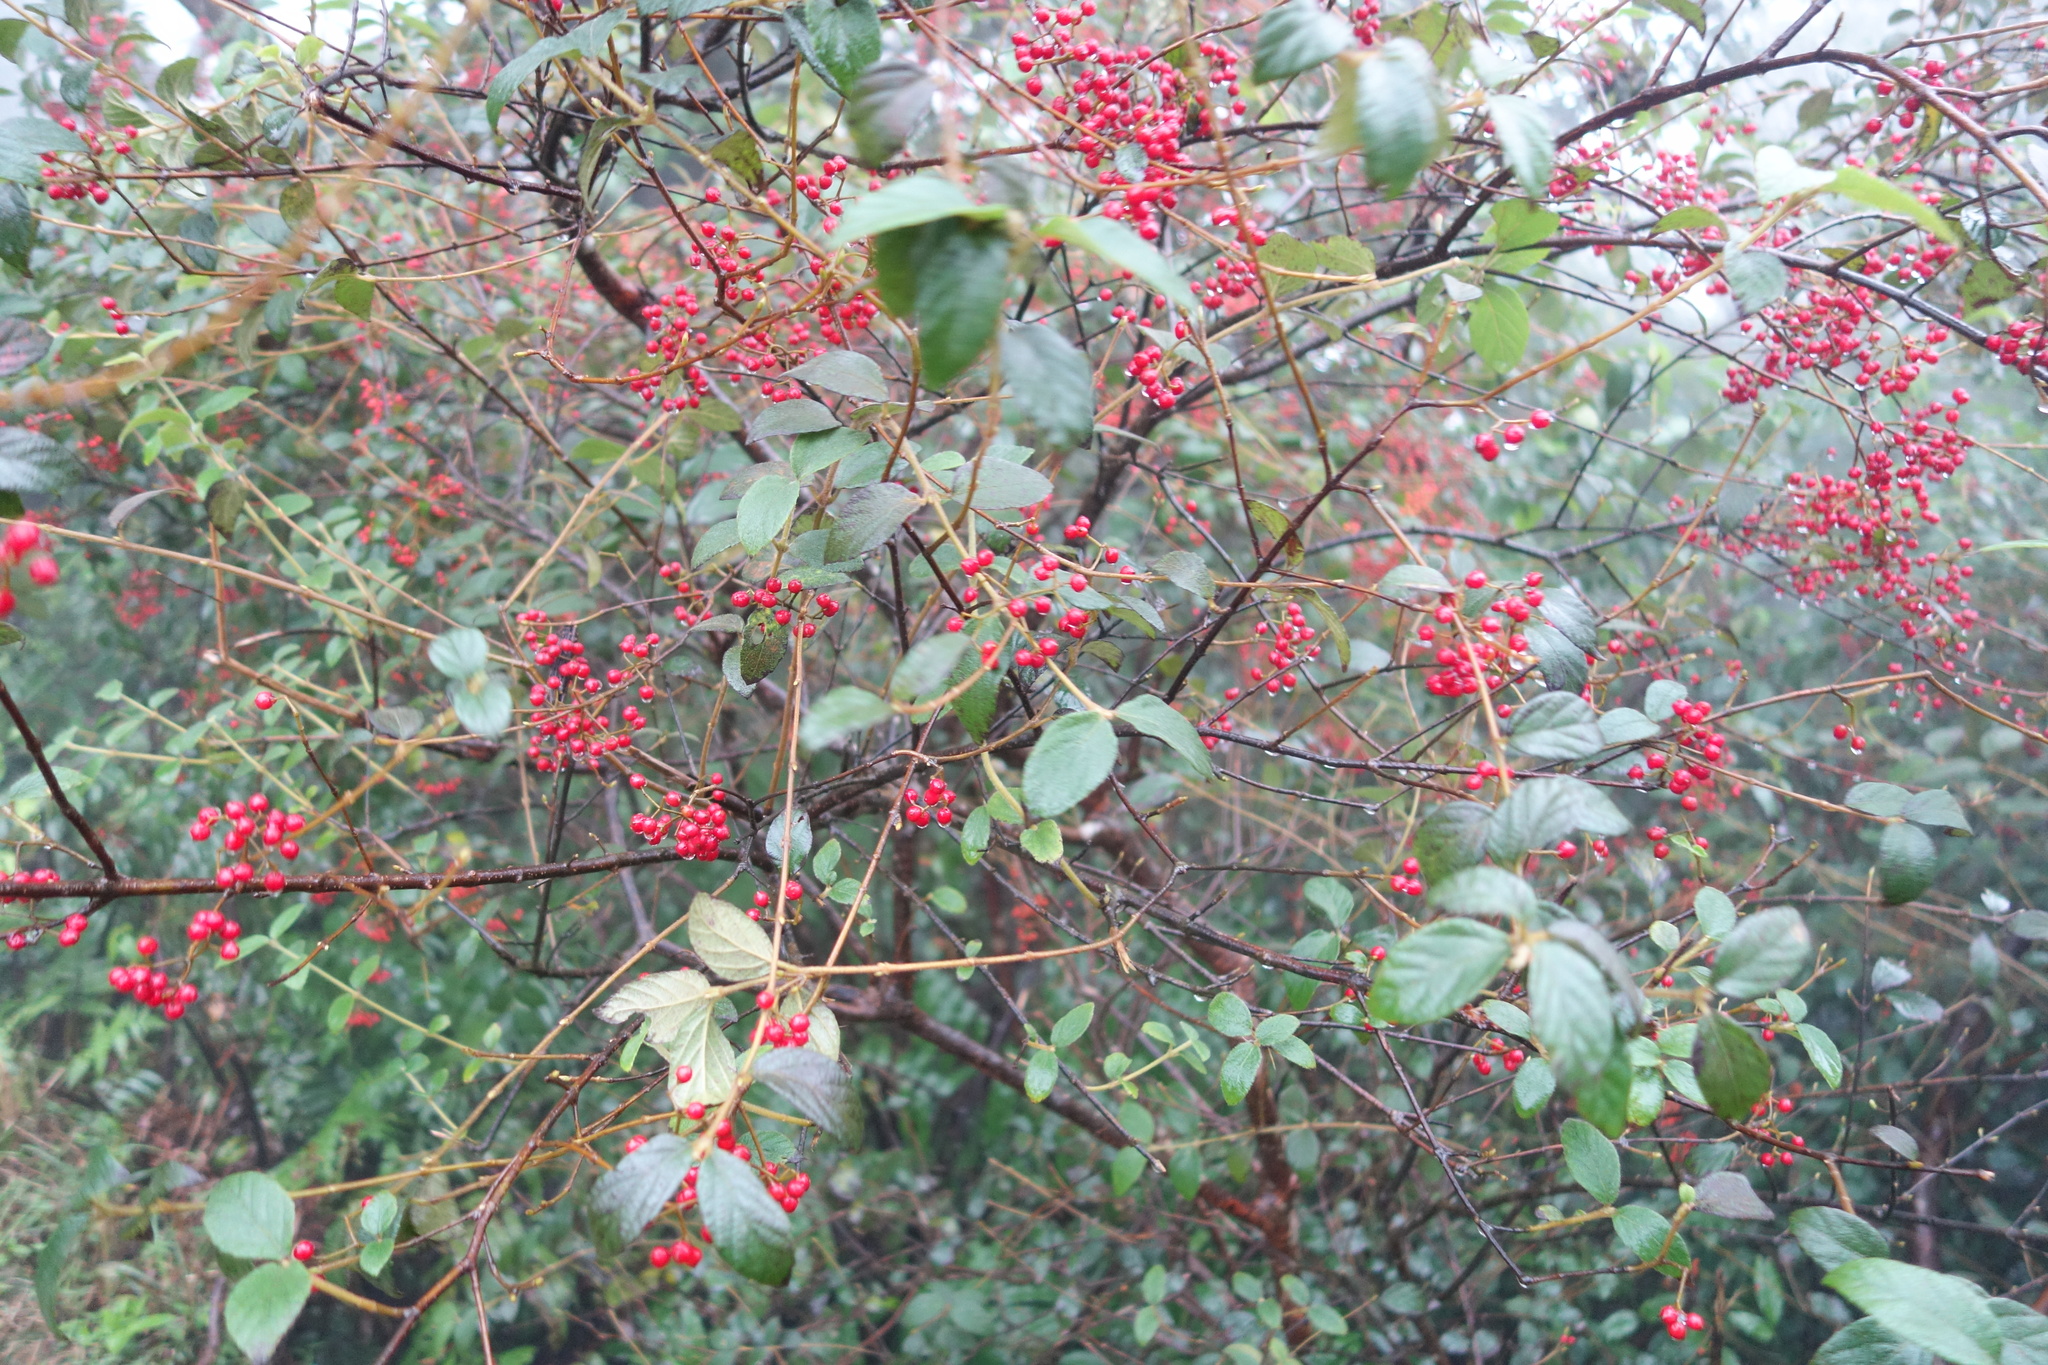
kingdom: Plantae
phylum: Tracheophyta
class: Magnoliopsida
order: Dipsacales
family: Viburnaceae
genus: Viburnum
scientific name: Viburnum luzonicum
